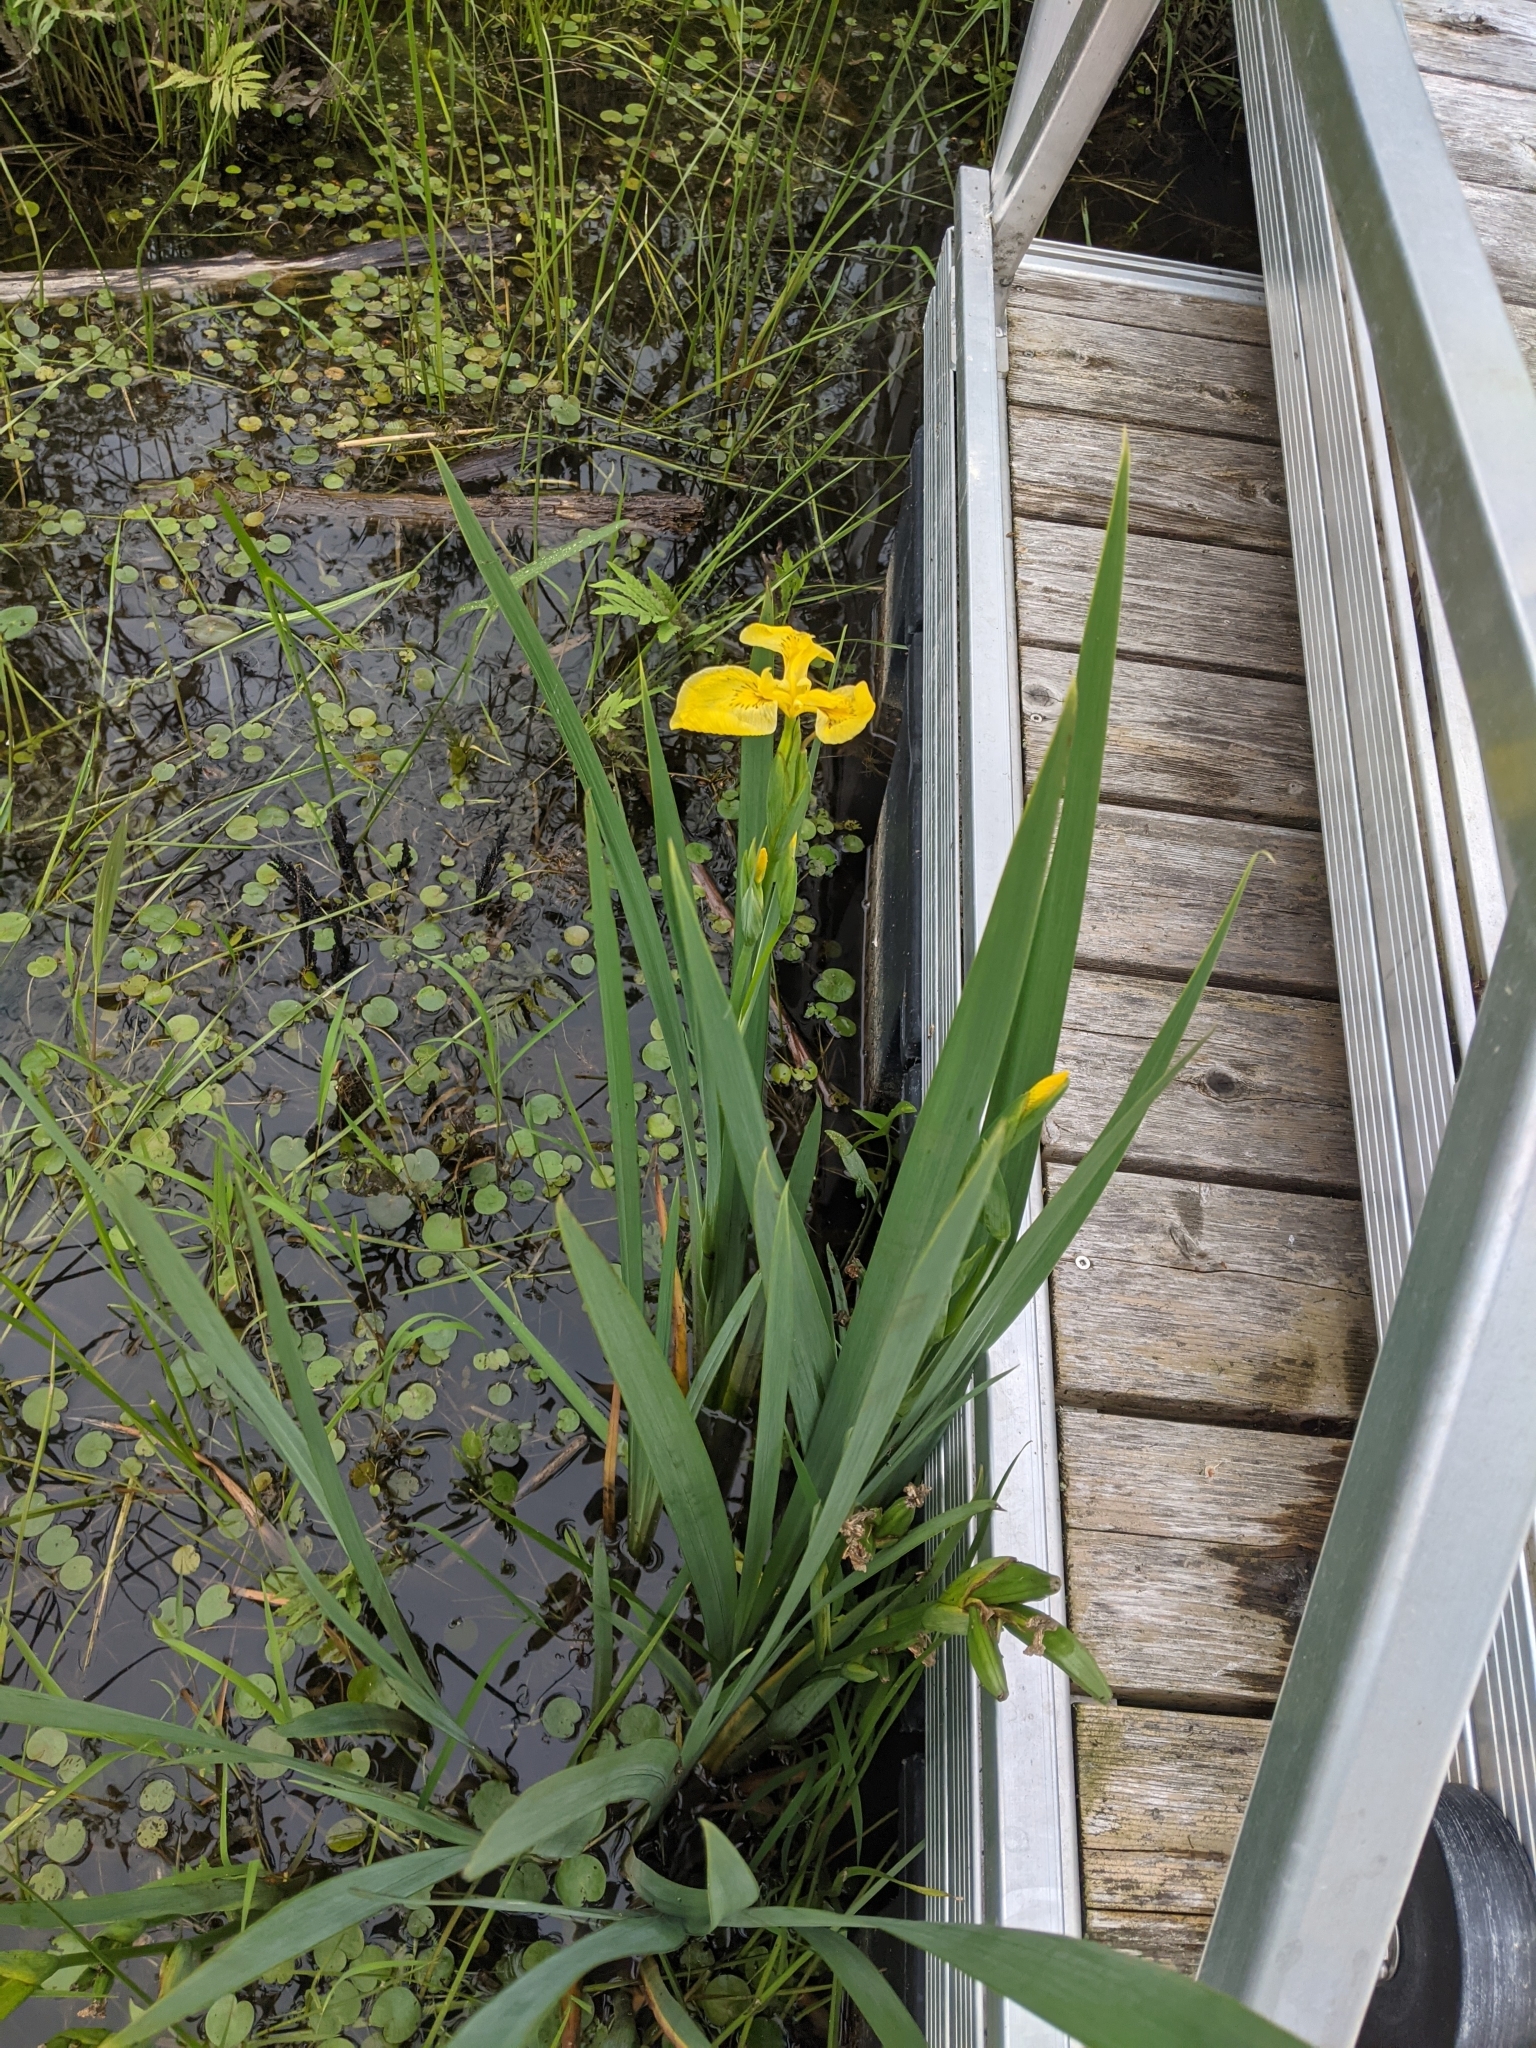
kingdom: Plantae
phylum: Tracheophyta
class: Liliopsida
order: Asparagales
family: Iridaceae
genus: Iris
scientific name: Iris pseudacorus
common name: Yellow flag
